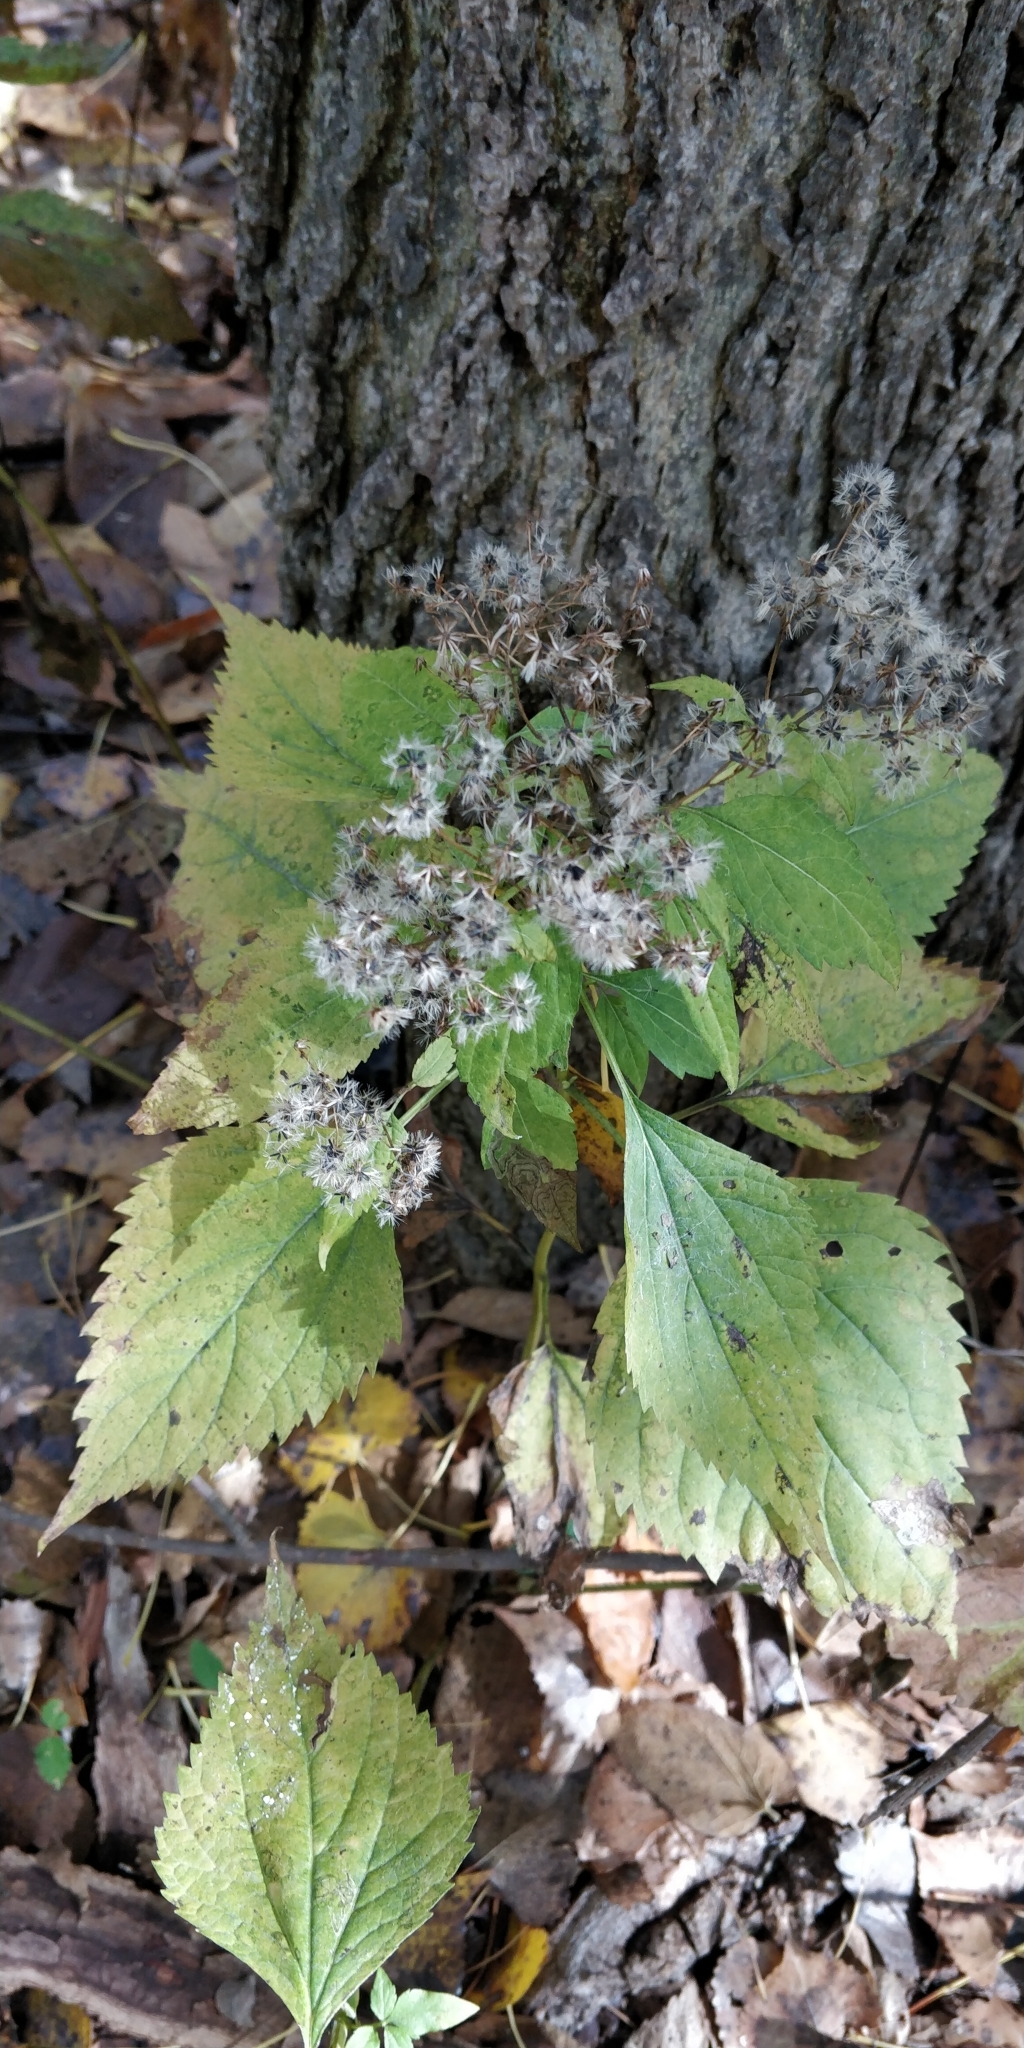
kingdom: Plantae
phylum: Tracheophyta
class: Magnoliopsida
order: Asterales
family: Asteraceae
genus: Ageratina
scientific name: Ageratina altissima
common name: White snakeroot
